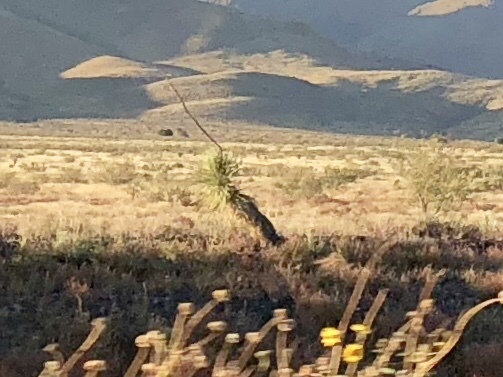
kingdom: Plantae
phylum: Tracheophyta
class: Liliopsida
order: Asparagales
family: Asparagaceae
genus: Yucca
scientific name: Yucca elata
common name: Palmella
